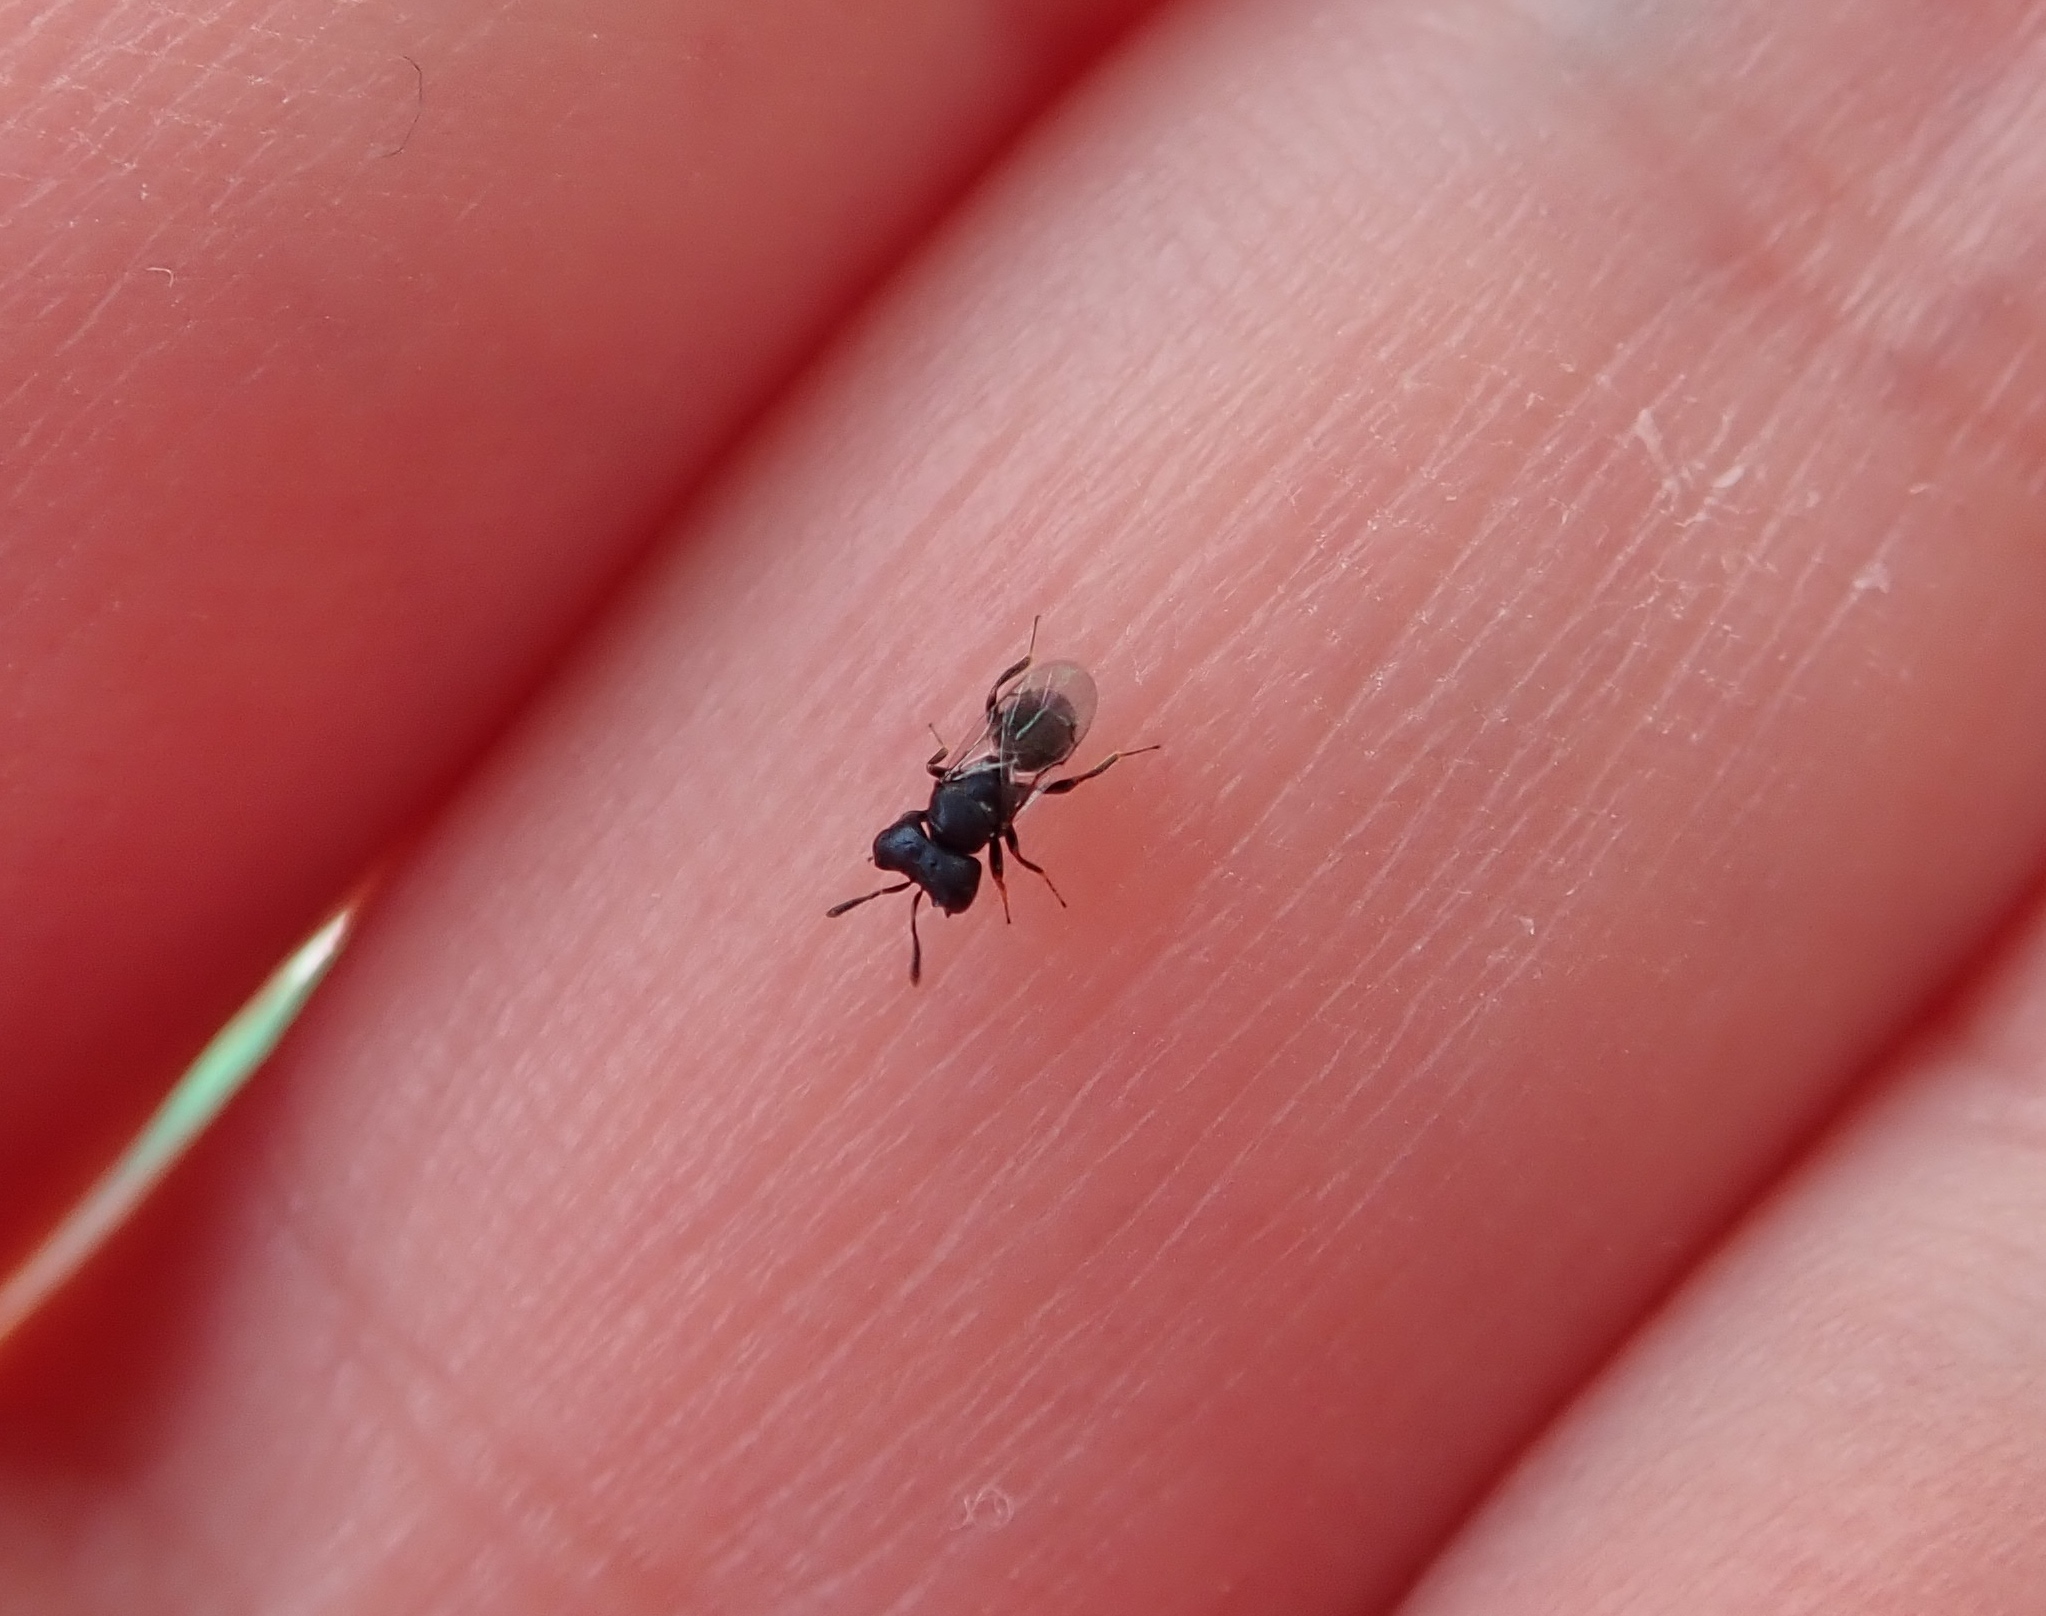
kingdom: Animalia
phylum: Arthropoda
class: Insecta
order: Hymenoptera
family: Pteromalidae
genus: Cratomus
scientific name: Cratomus megacephalus
